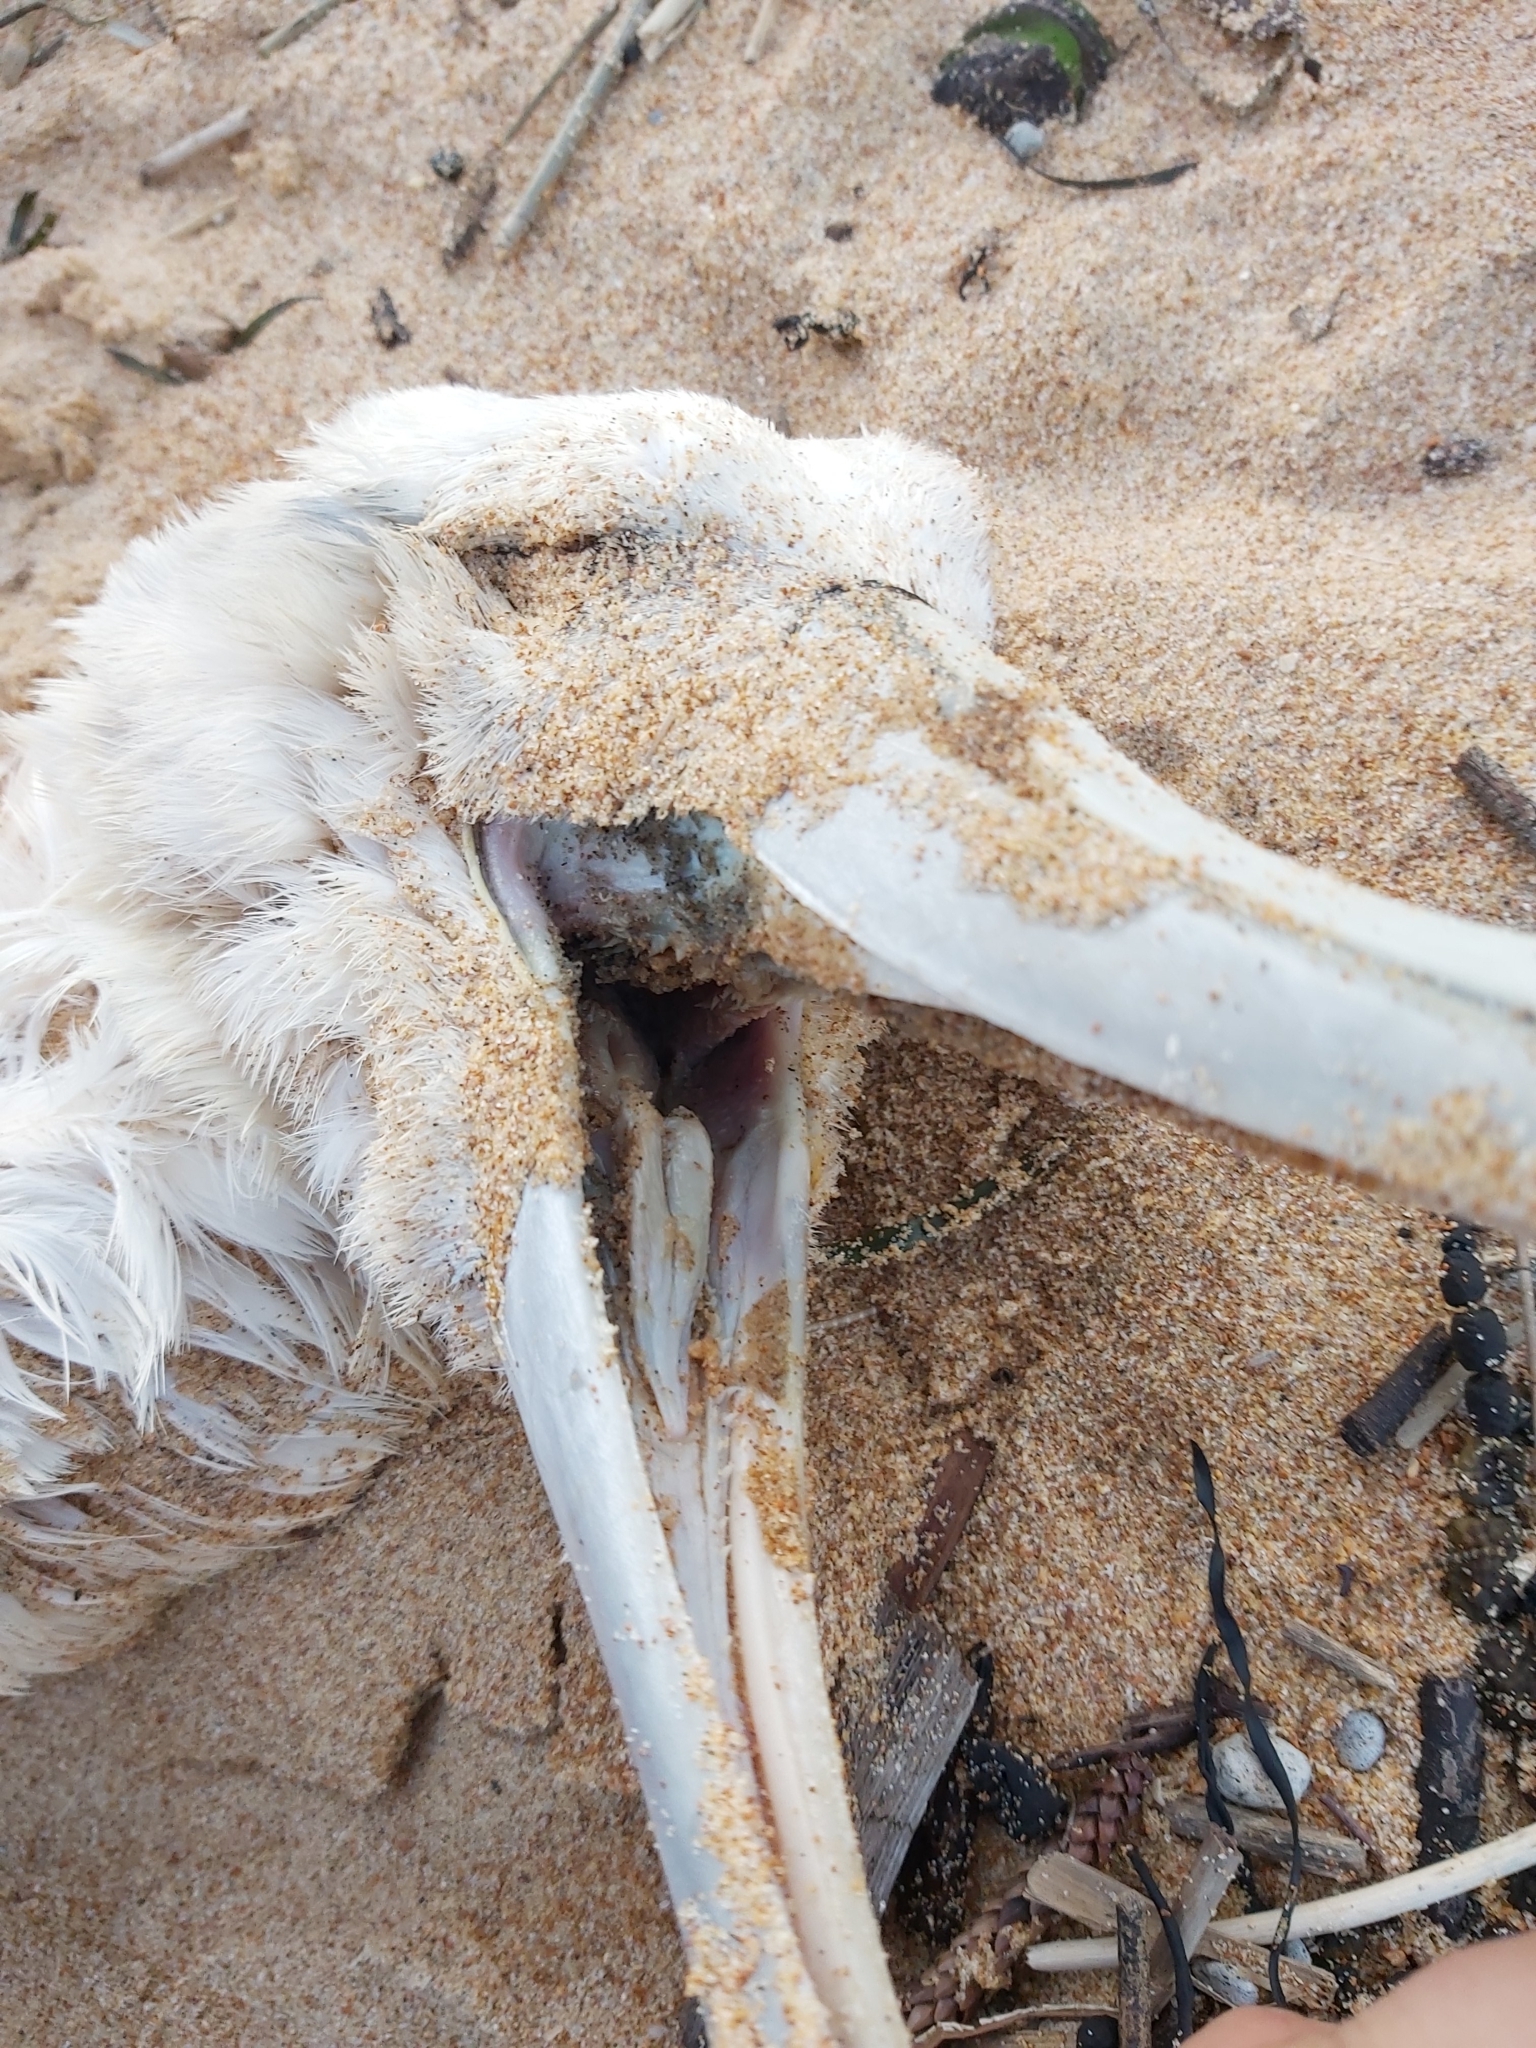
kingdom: Animalia
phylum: Chordata
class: Aves
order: Procellariiformes
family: Diomedeidae
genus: Thalassarche
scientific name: Thalassarche cauta
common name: Shy albatross
